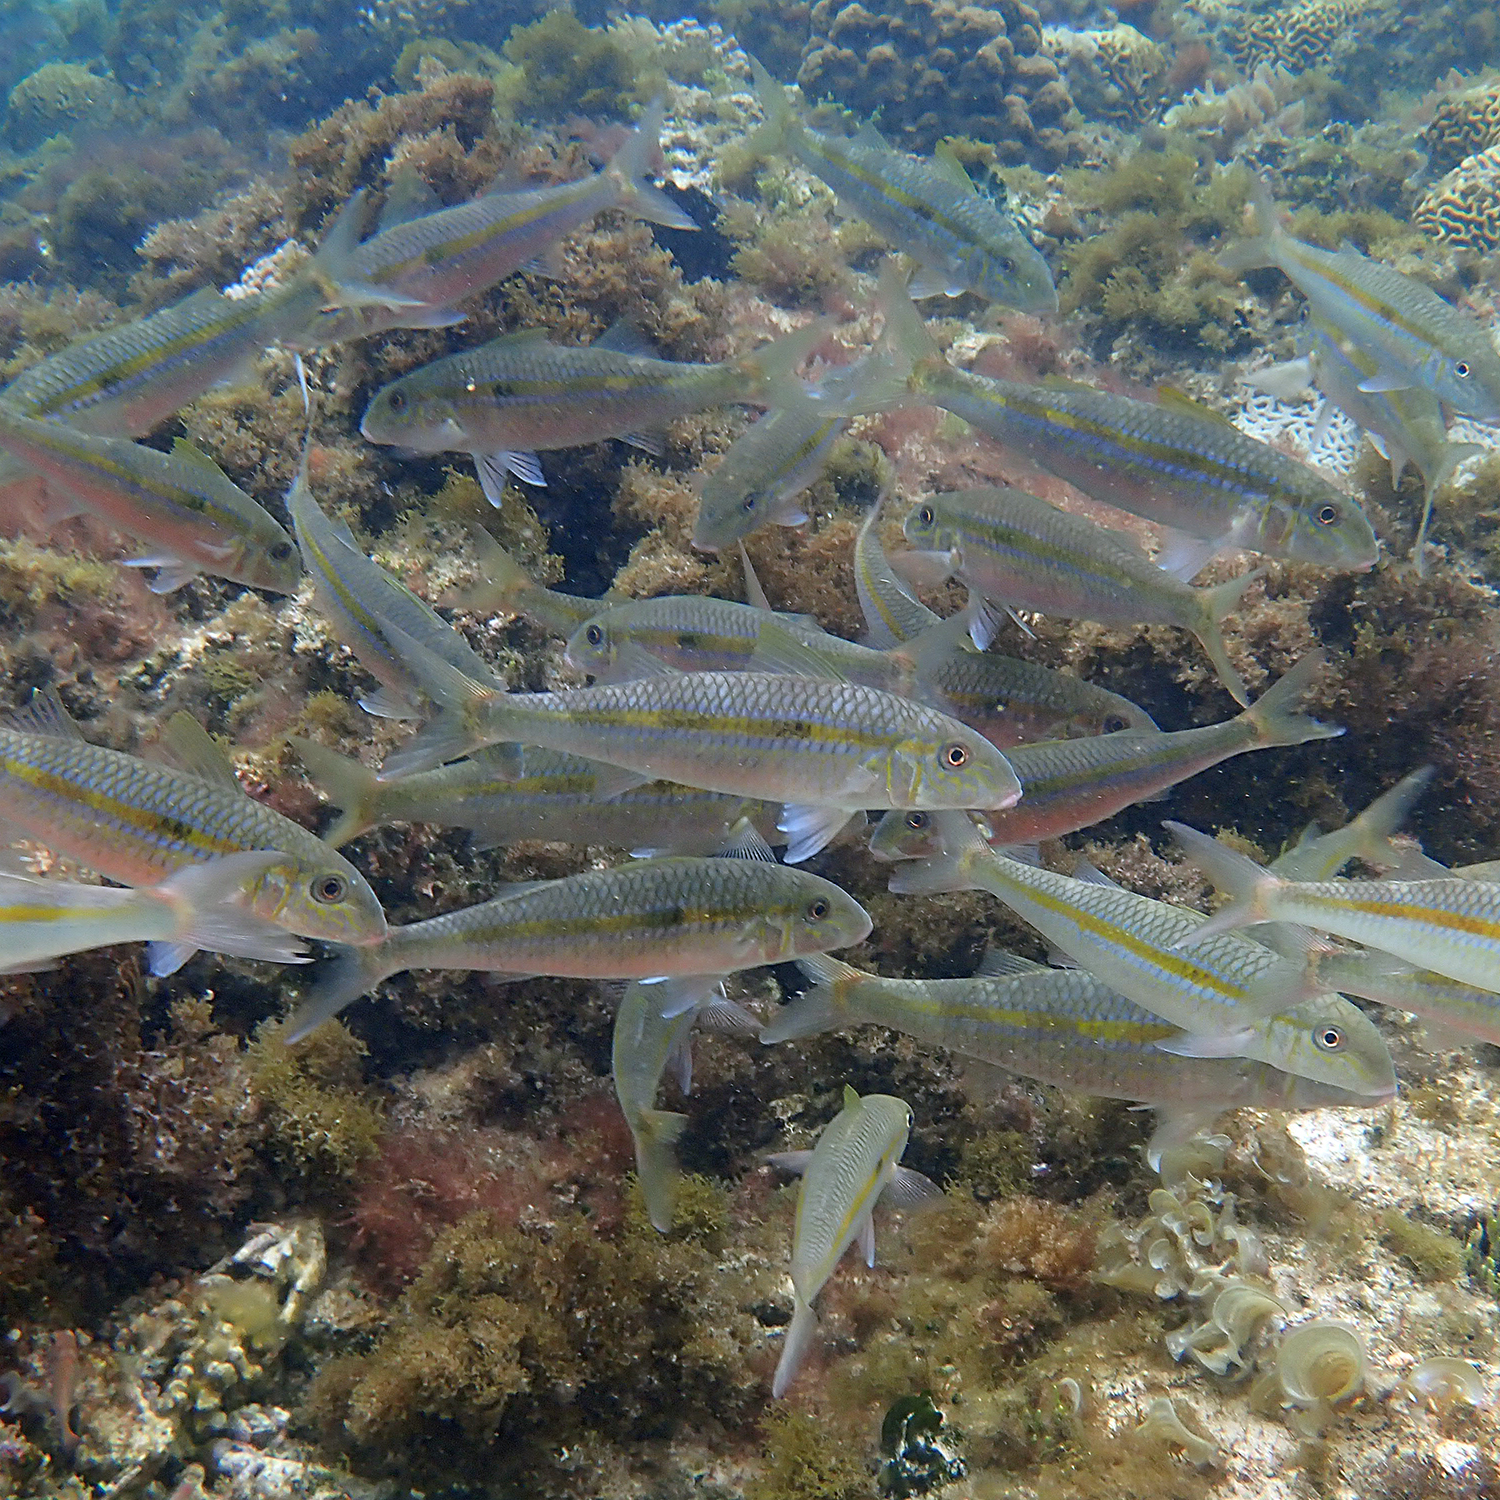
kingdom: Animalia
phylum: Chordata
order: Perciformes
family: Mullidae
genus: Mulloidichthys
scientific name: Mulloidichthys flavolineatus
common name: Yellowstripe goatfish
